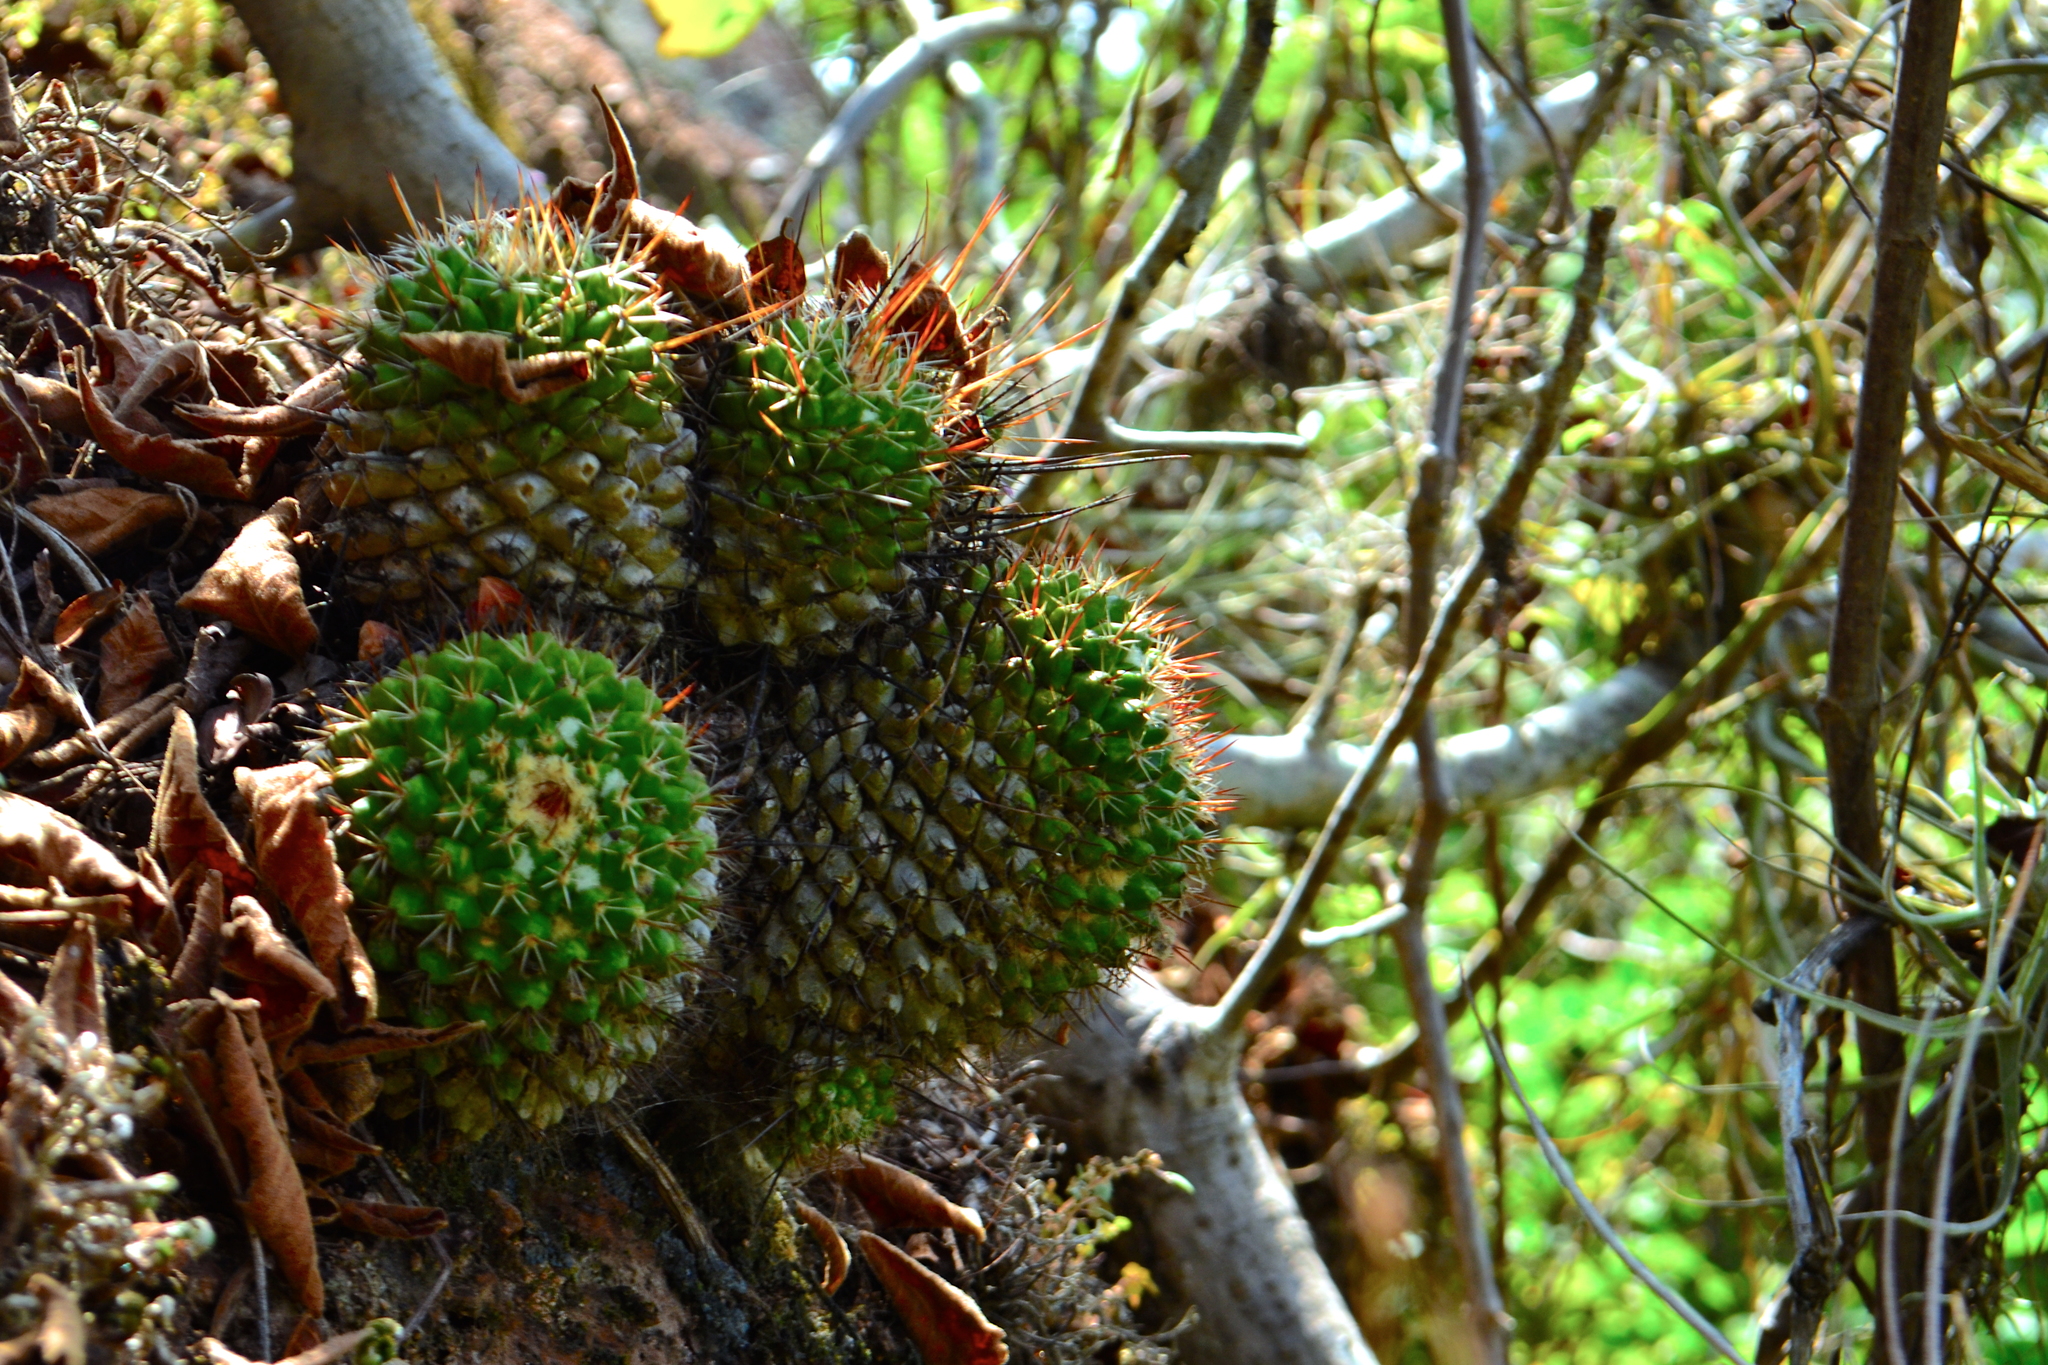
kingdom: Plantae
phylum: Tracheophyta
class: Magnoliopsida
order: Caryophyllales
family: Cactaceae
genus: Mammillaria
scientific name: Mammillaria voburnensis
